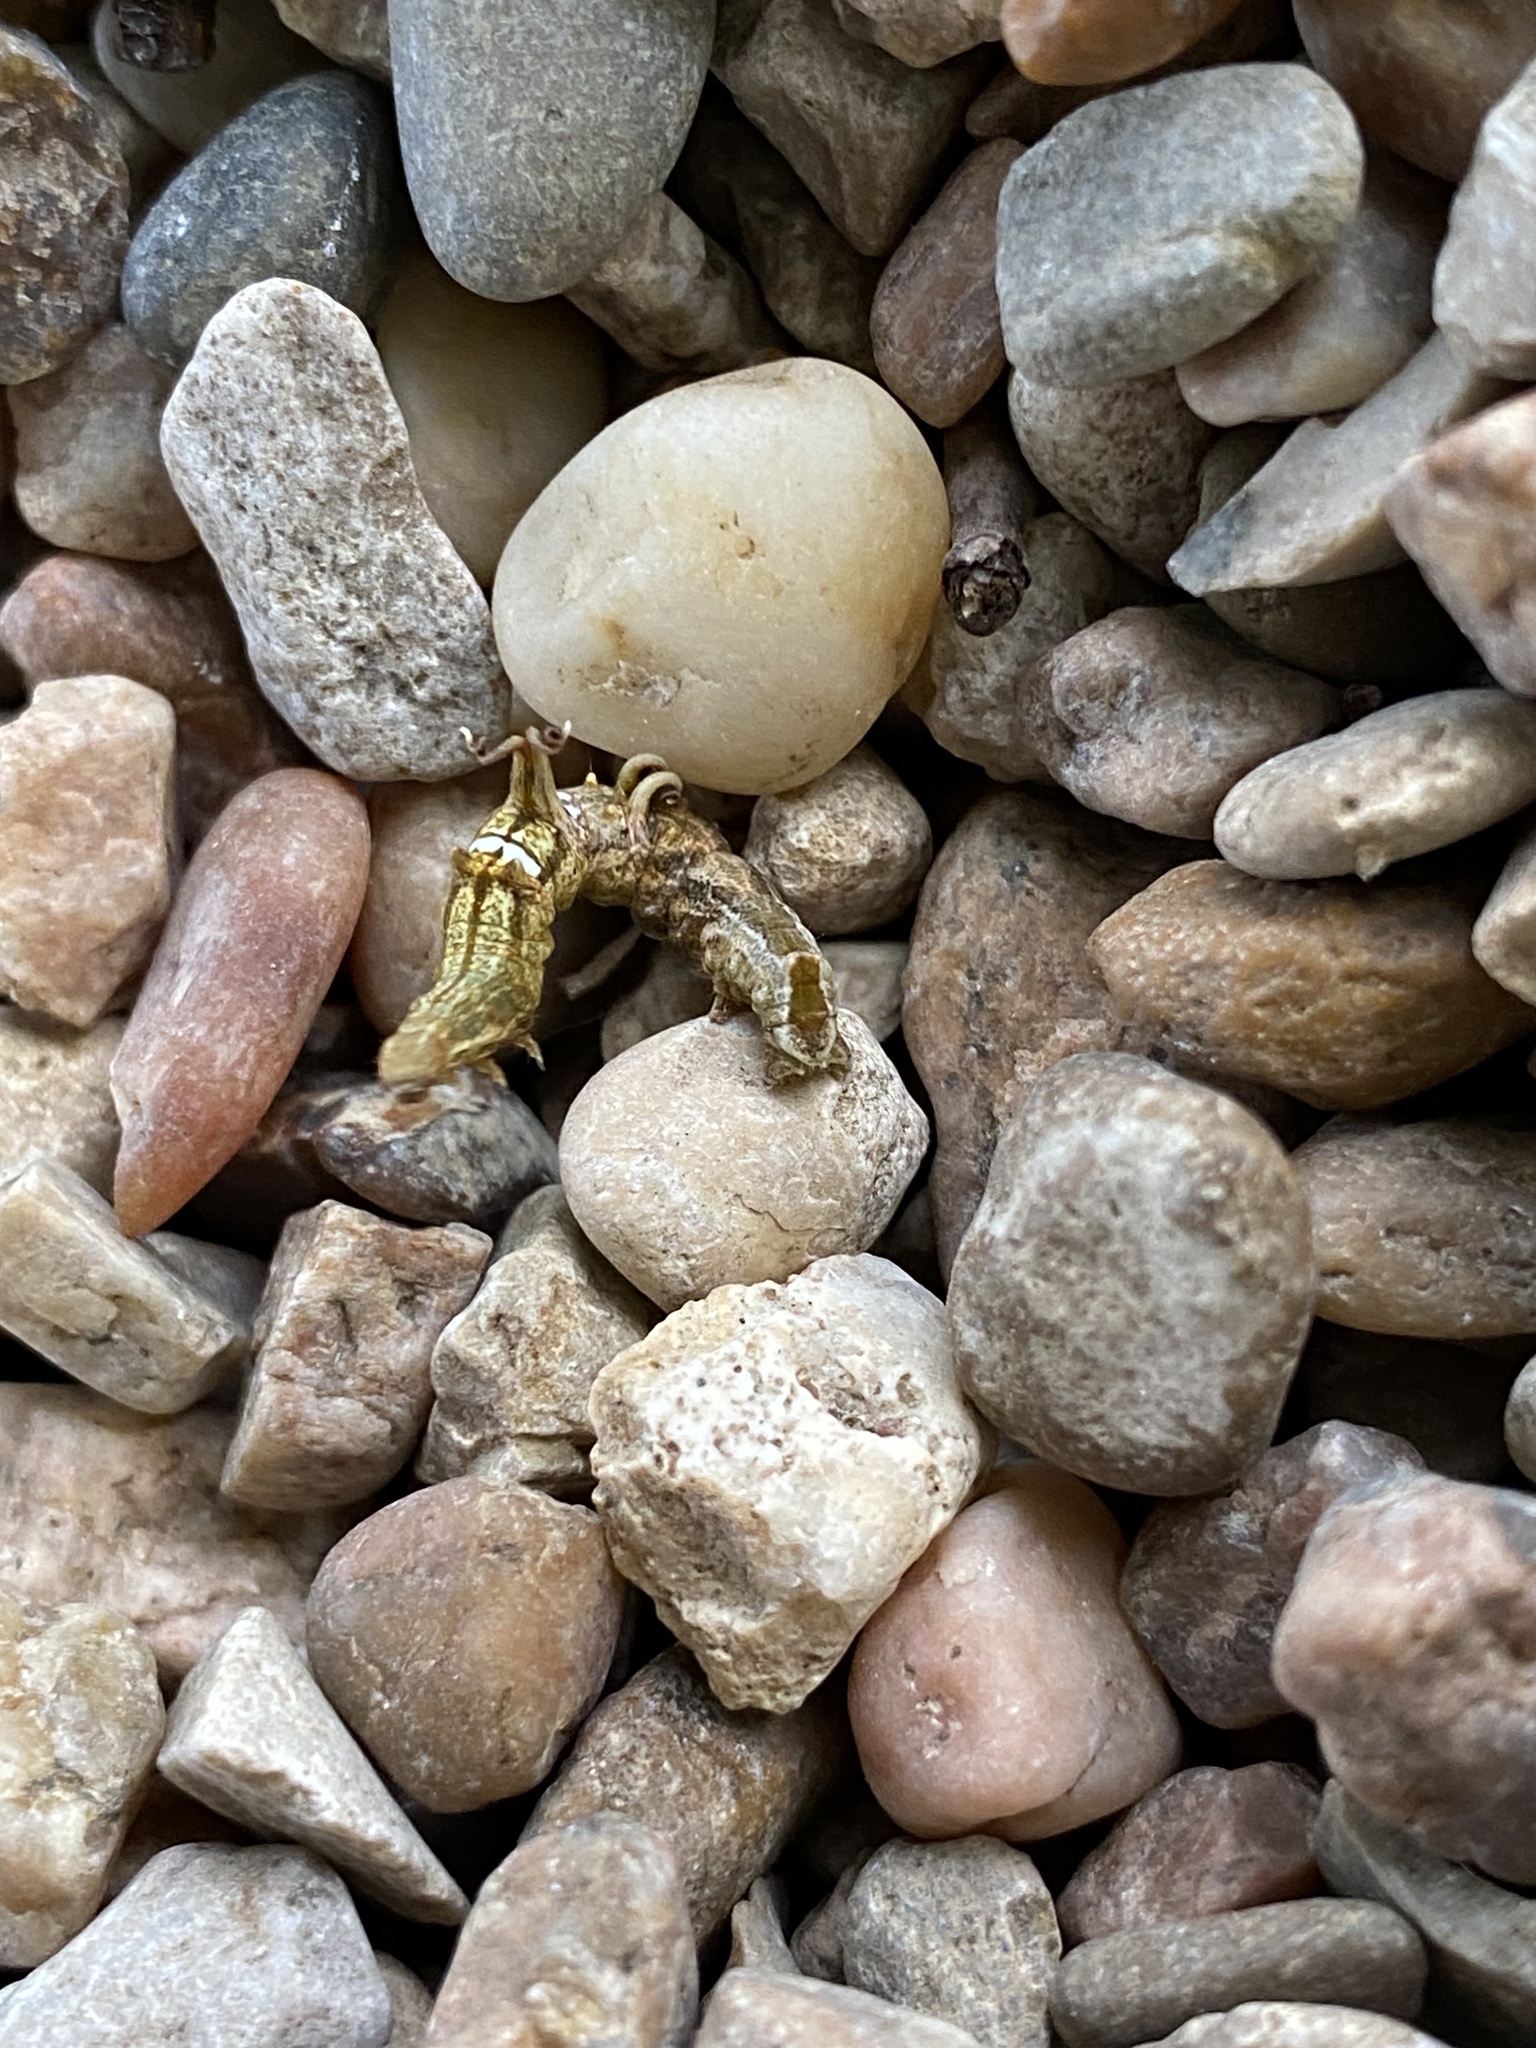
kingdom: Animalia
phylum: Arthropoda
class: Insecta
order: Lepidoptera
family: Geometridae
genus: Nematocampa
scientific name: Nematocampa resistaria
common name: Horned spanworm moth
